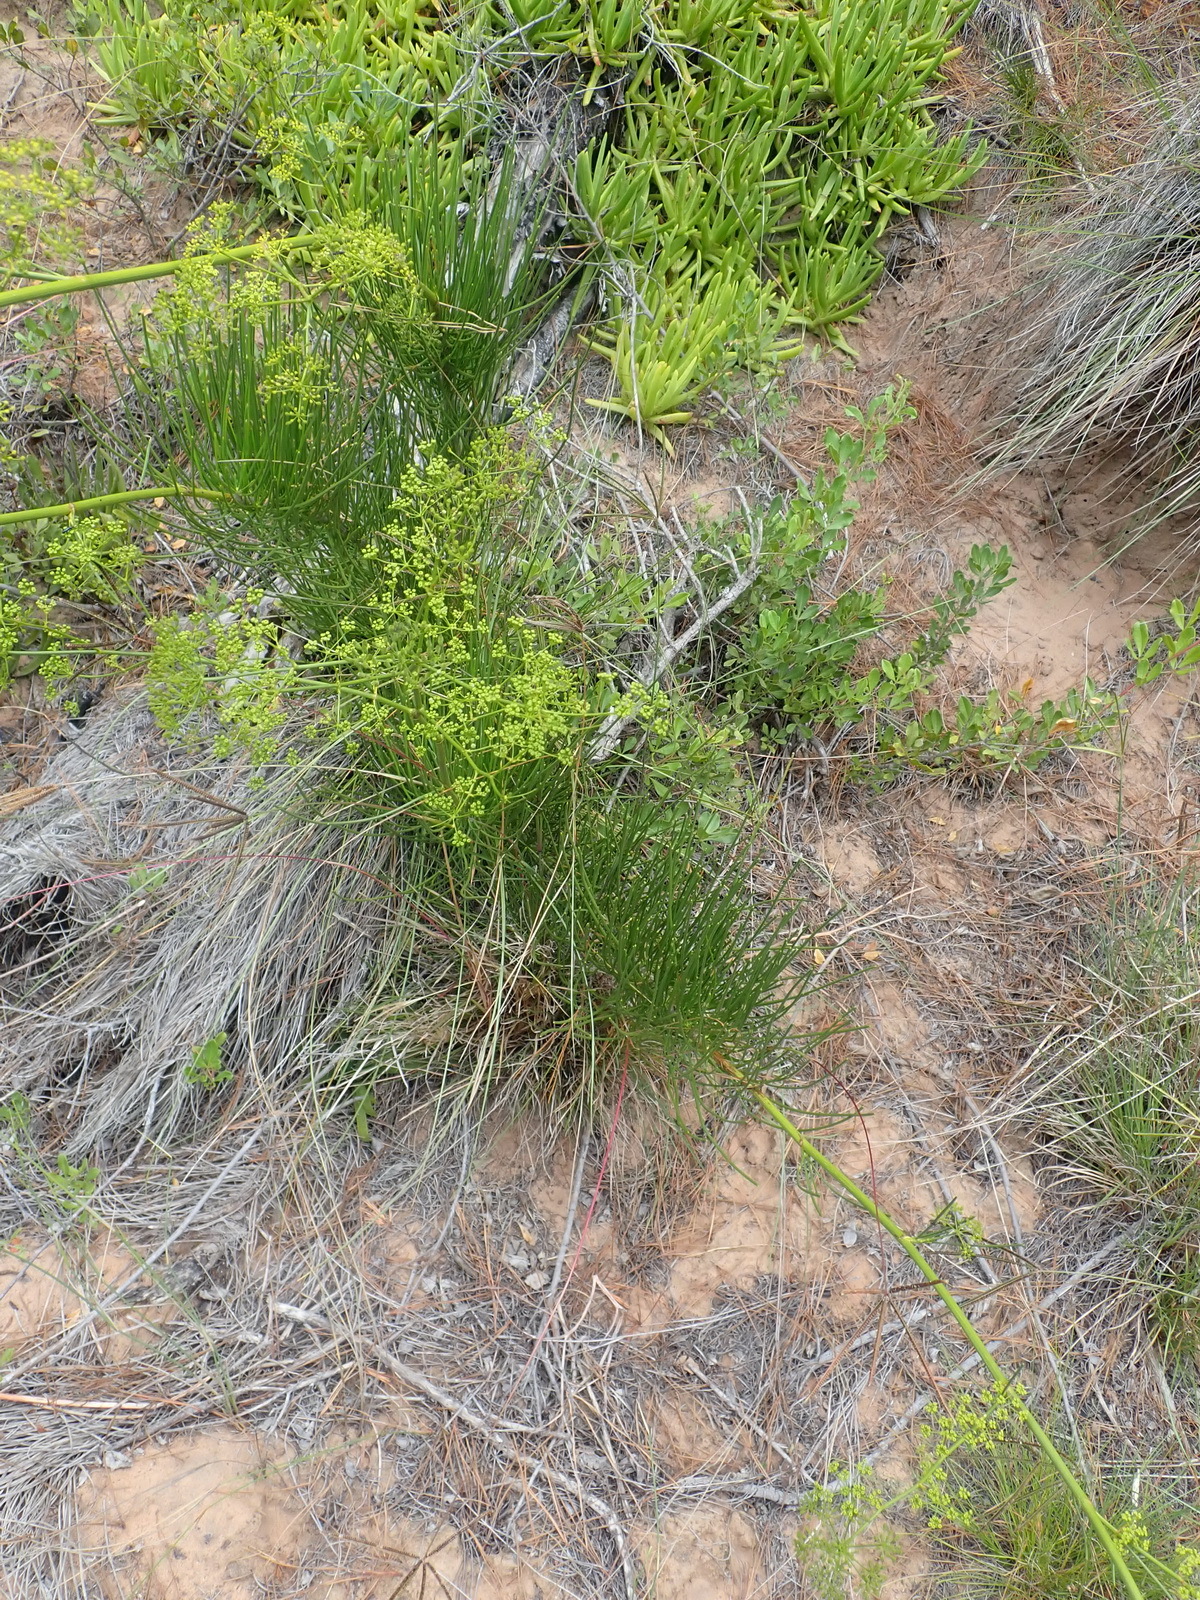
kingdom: Plantae
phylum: Tracheophyta
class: Magnoliopsida
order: Apiales
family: Apiaceae
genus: Anginon
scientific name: Anginon difforme
